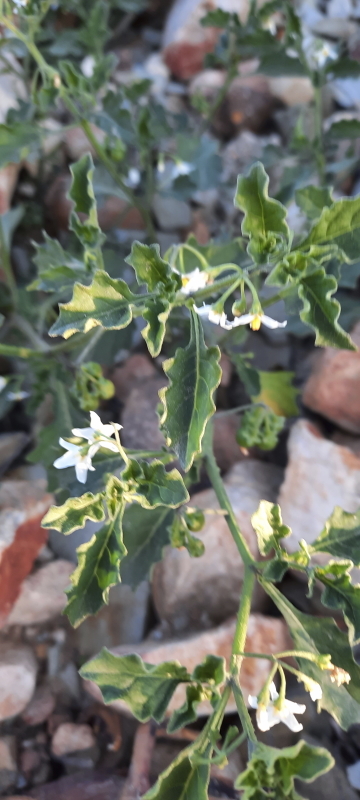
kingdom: Plantae
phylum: Tracheophyta
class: Magnoliopsida
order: Solanales
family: Solanaceae
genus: Solanum
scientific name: Solanum retroflexum
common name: Wonderberry
